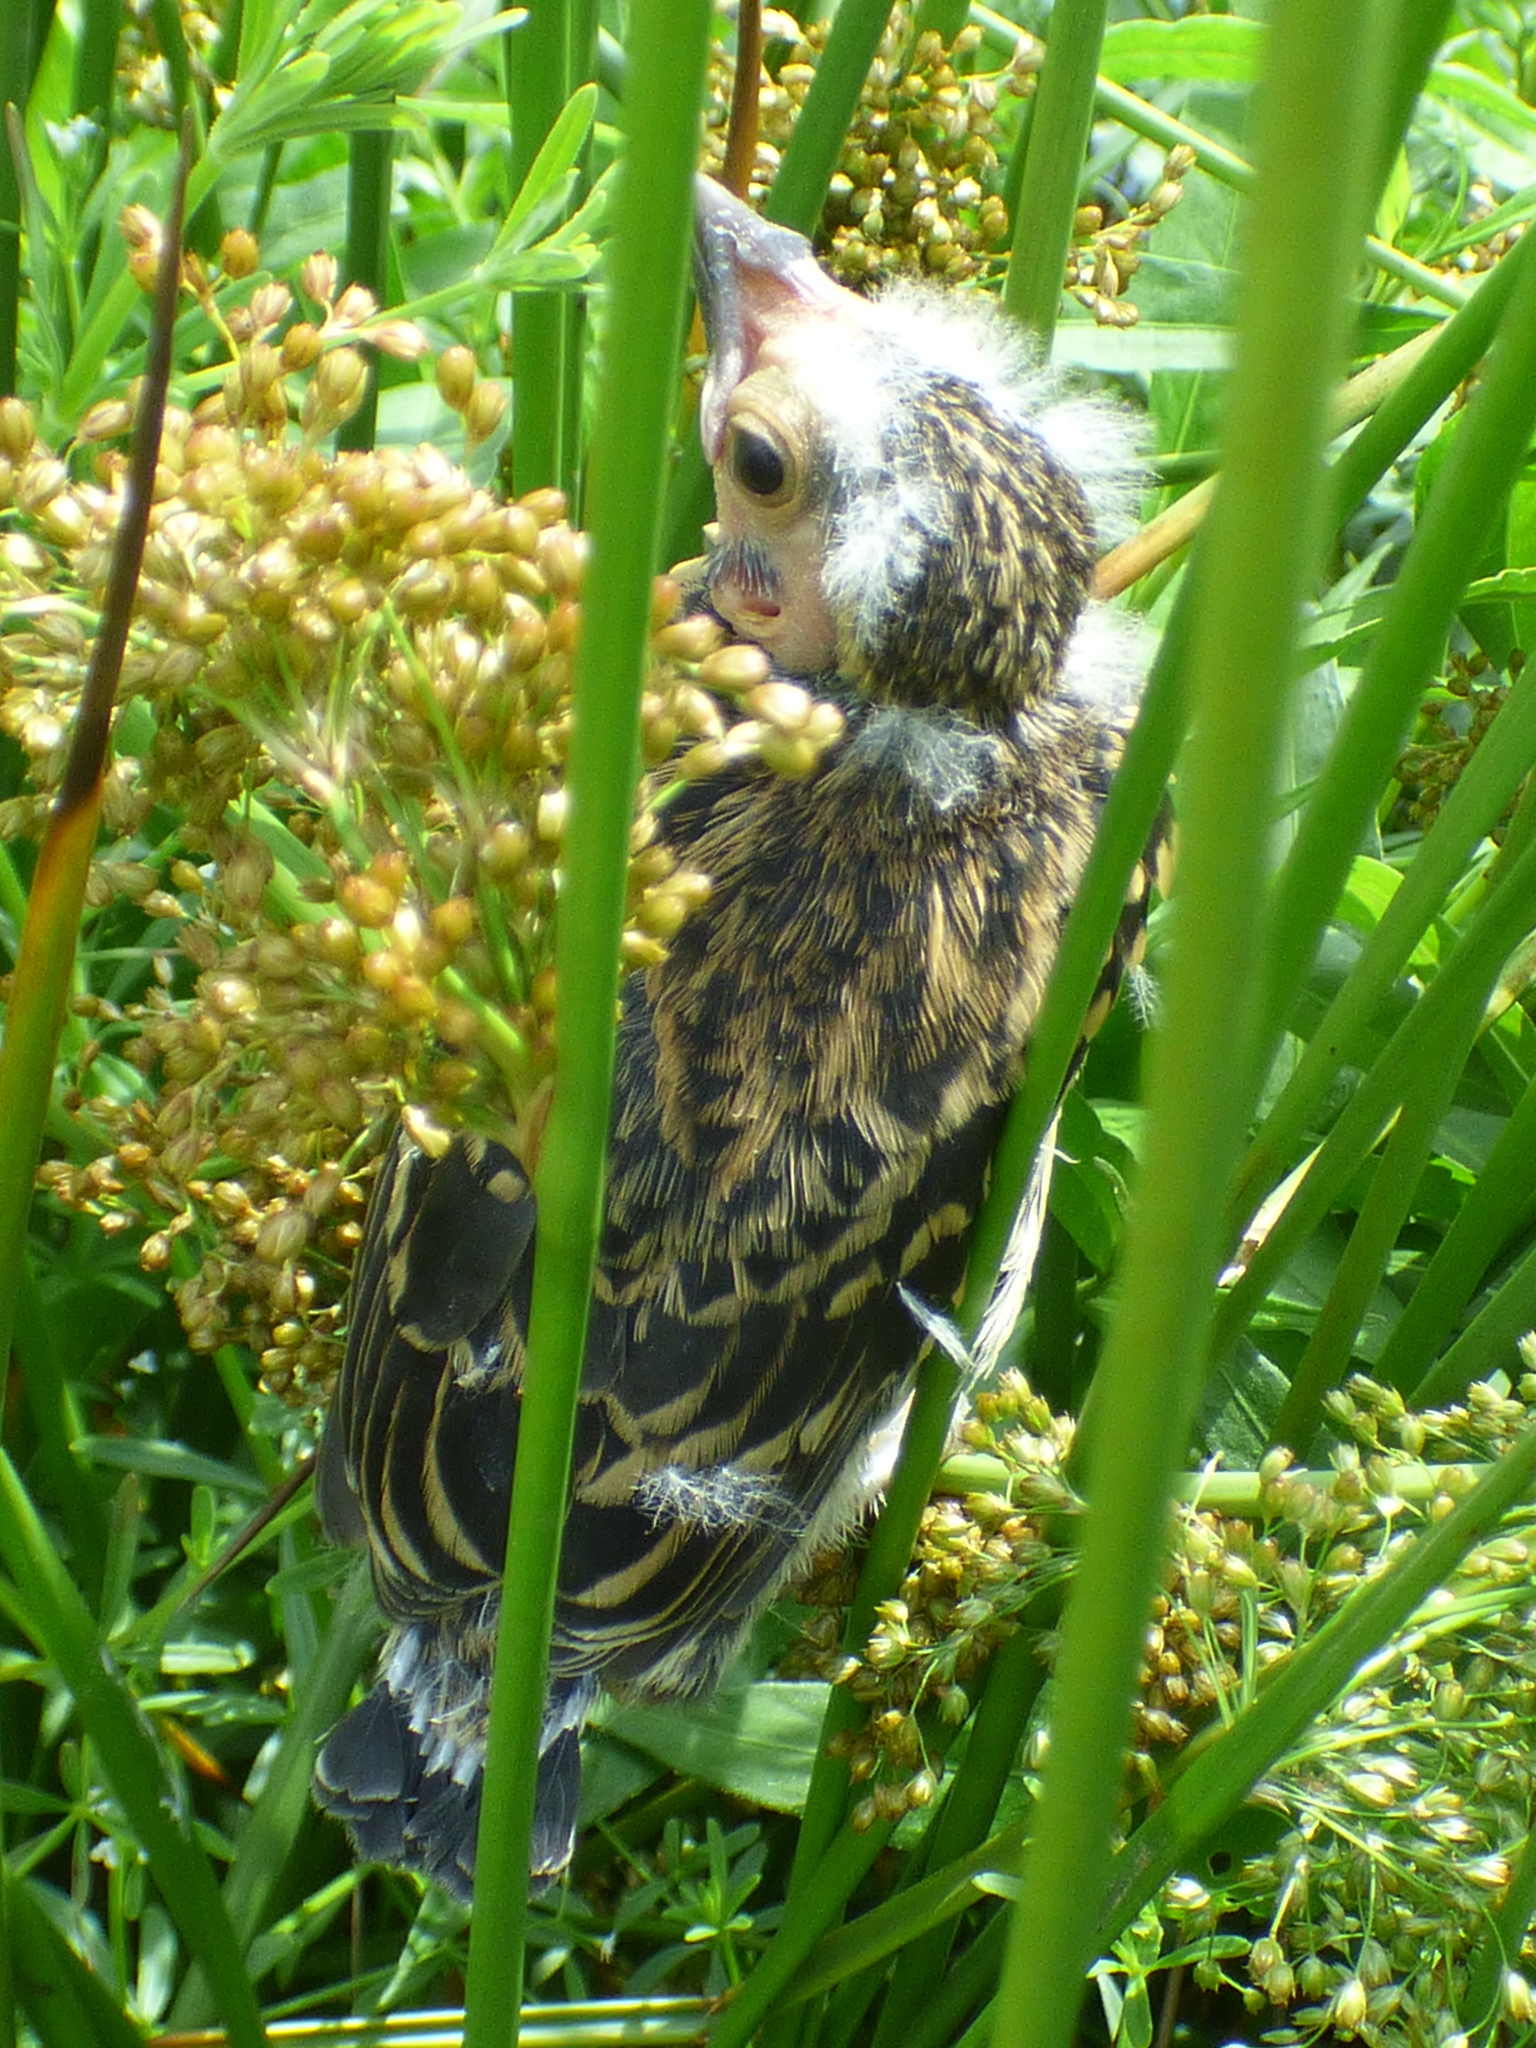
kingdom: Animalia
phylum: Chordata
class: Aves
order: Passeriformes
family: Icteridae
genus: Agelaius
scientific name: Agelaius phoeniceus
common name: Red-winged blackbird
